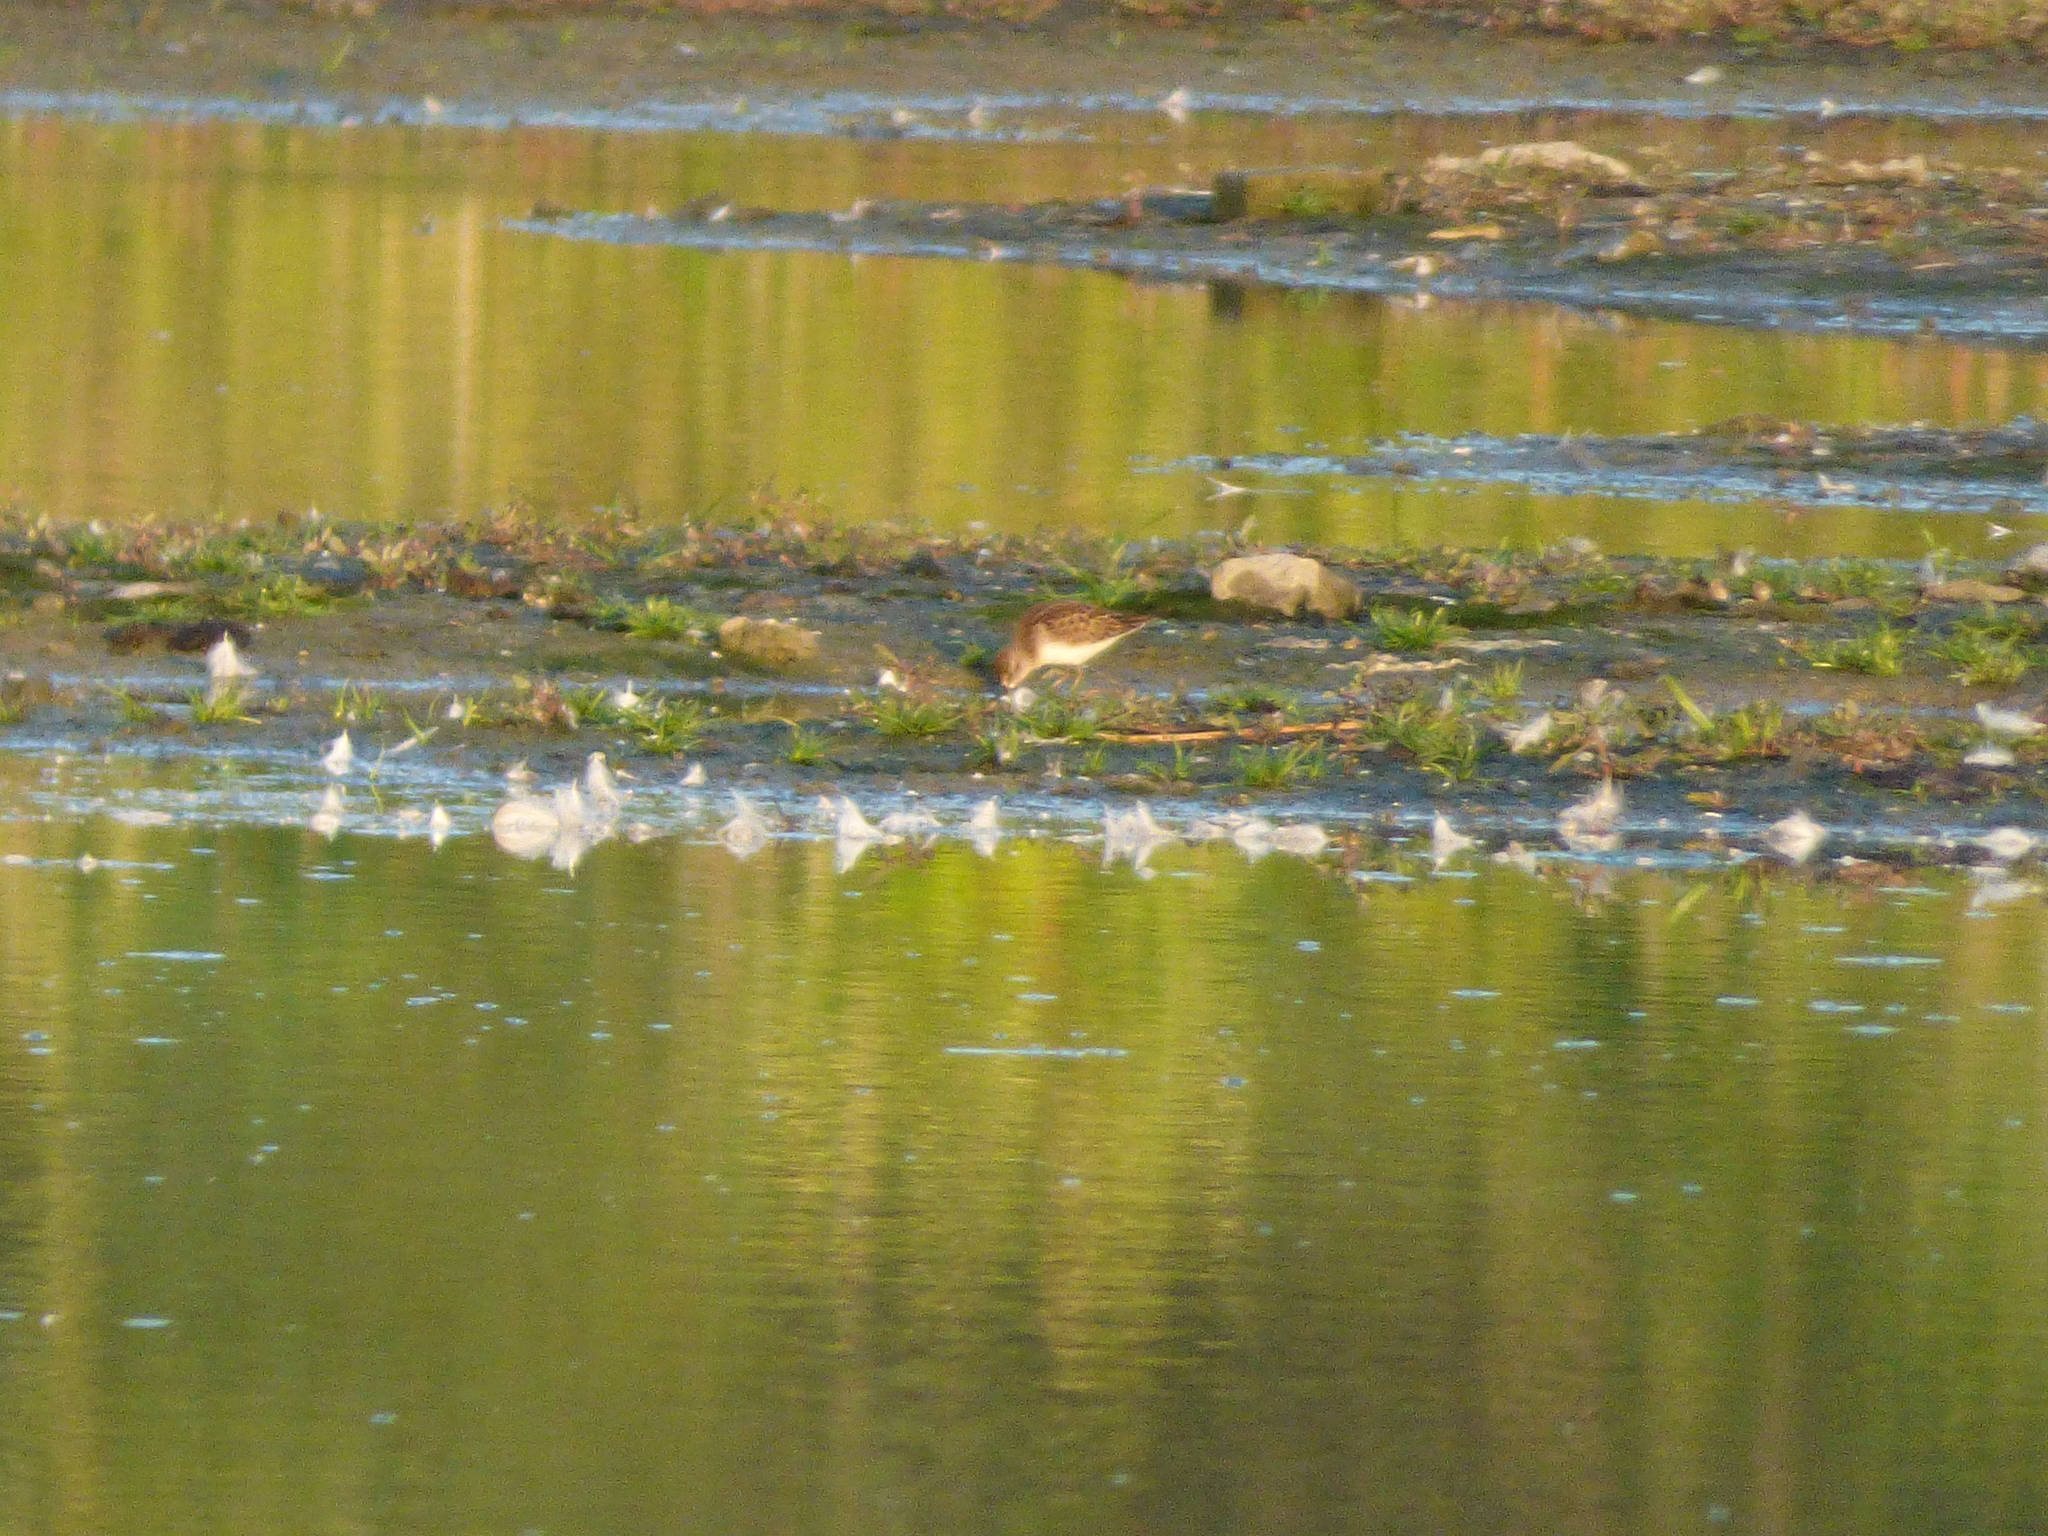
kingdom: Animalia
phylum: Chordata
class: Aves
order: Charadriiformes
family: Scolopacidae
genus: Calidris
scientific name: Calidris minutilla
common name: Least sandpiper
